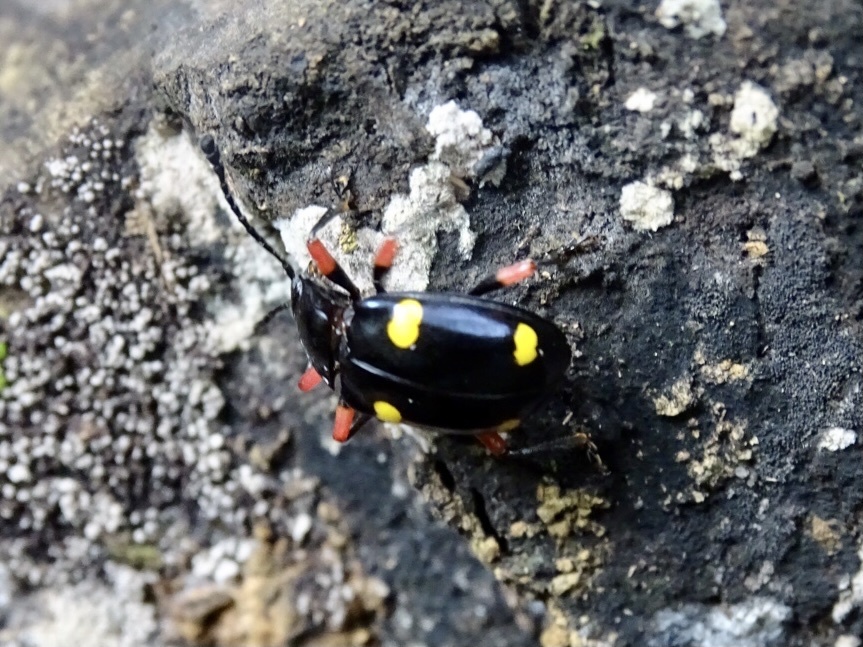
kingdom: Animalia
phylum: Arthropoda
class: Insecta
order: Coleoptera
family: Endomychidae
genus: Eumorphus
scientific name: Eumorphus quadriguttatus
